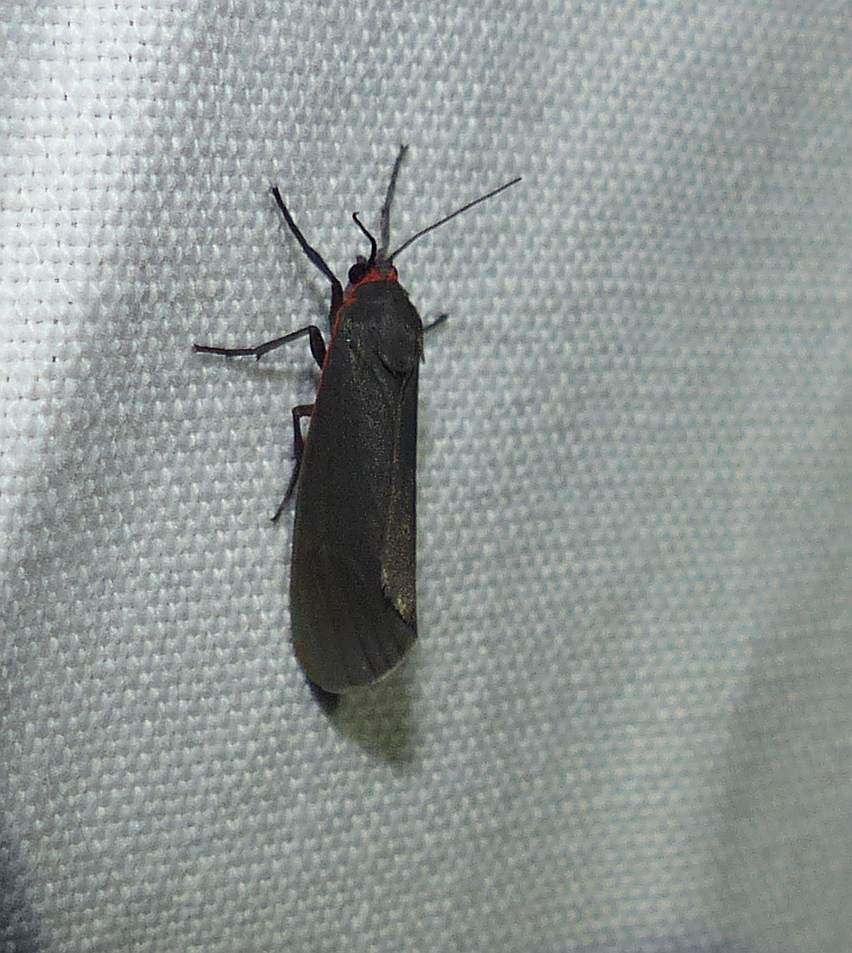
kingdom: Animalia
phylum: Arthropoda
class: Insecta
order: Lepidoptera
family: Erebidae
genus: Virbia
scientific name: Virbia laeta
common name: Joyful holomelina moth
